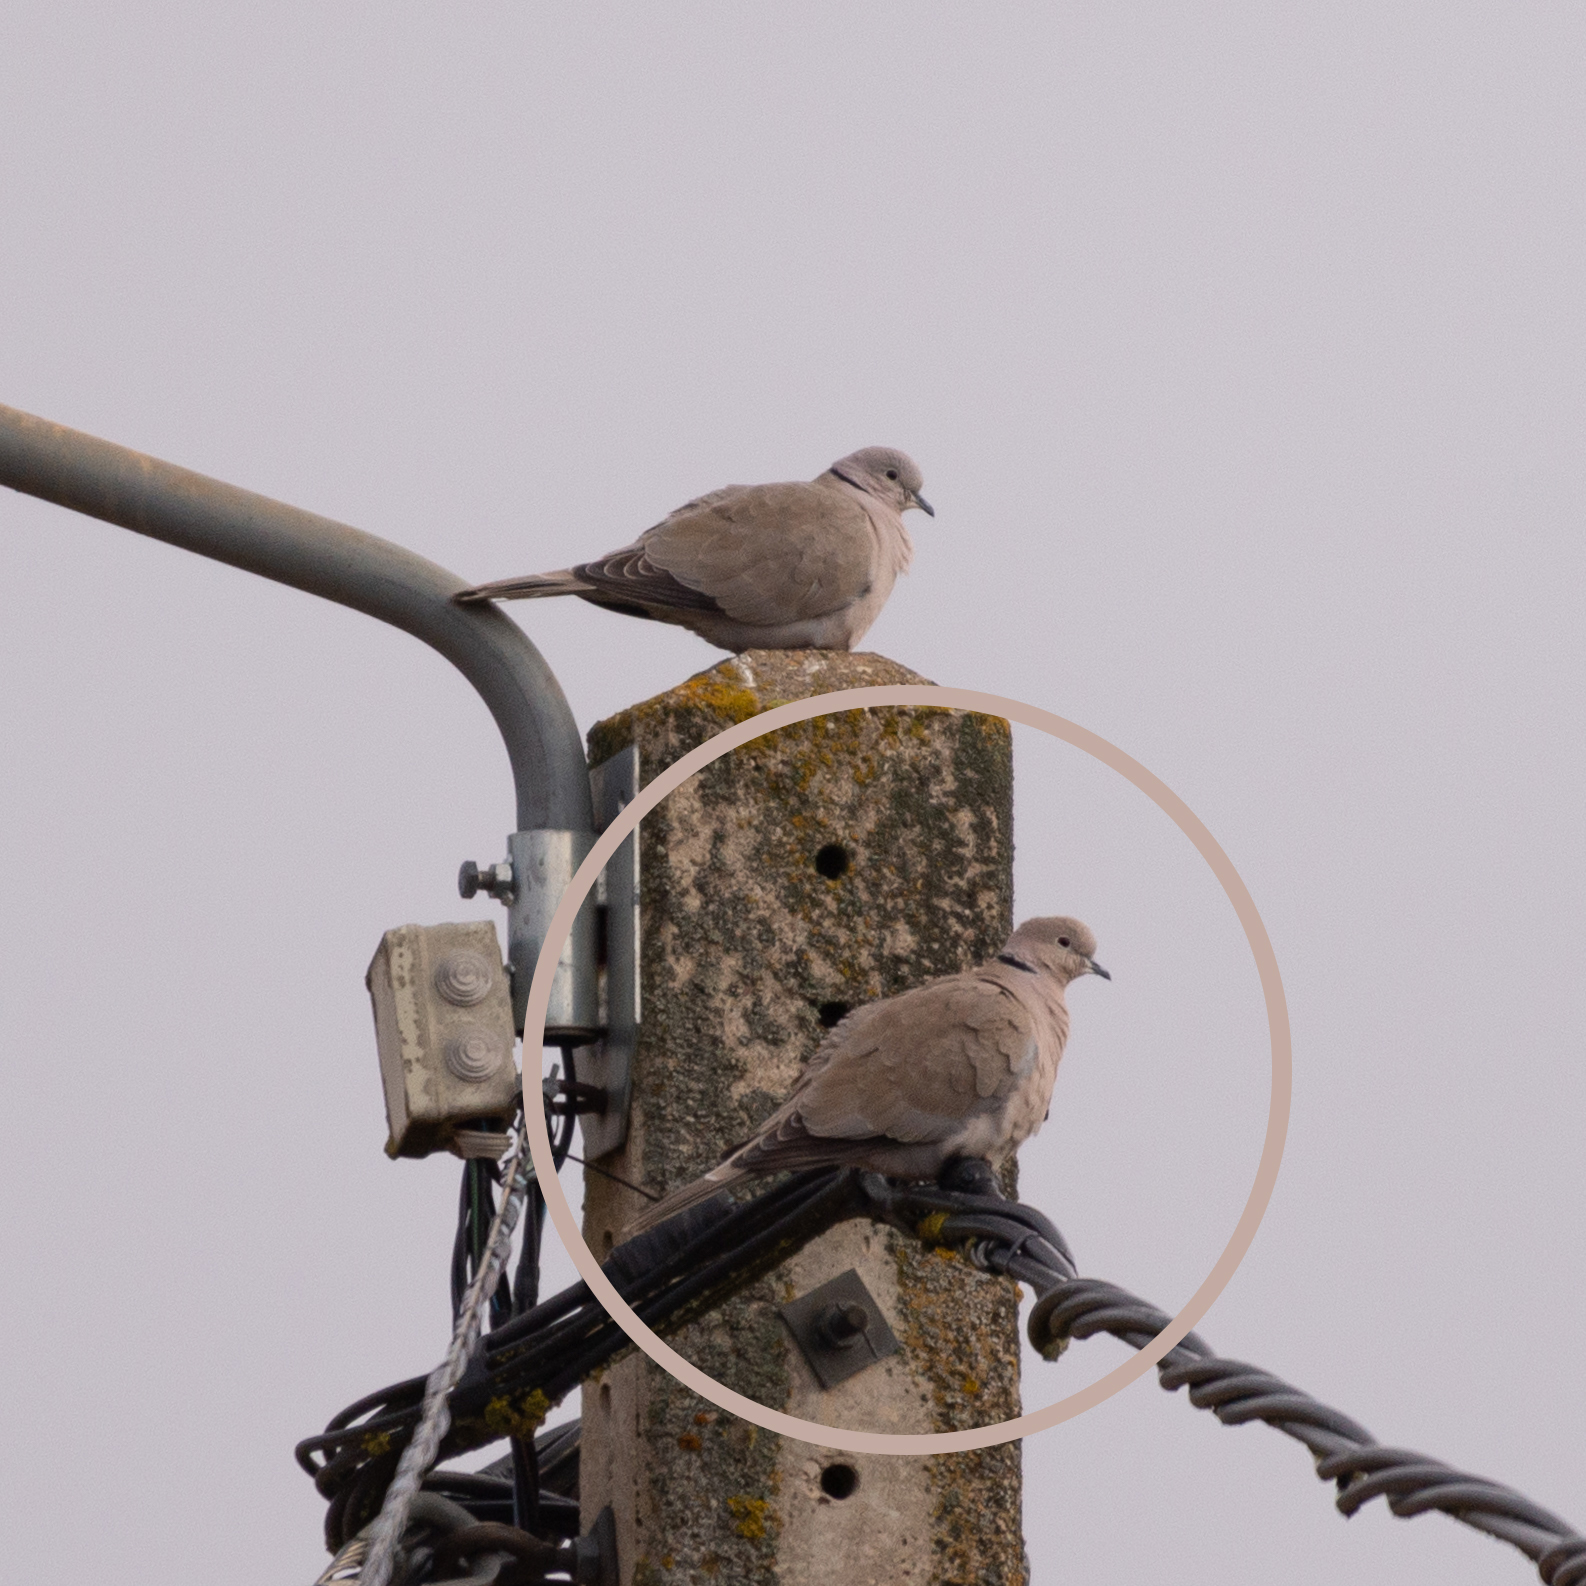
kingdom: Animalia
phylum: Chordata
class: Aves
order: Columbiformes
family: Columbidae
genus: Streptopelia
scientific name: Streptopelia decaocto
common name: Eurasian collared dove
